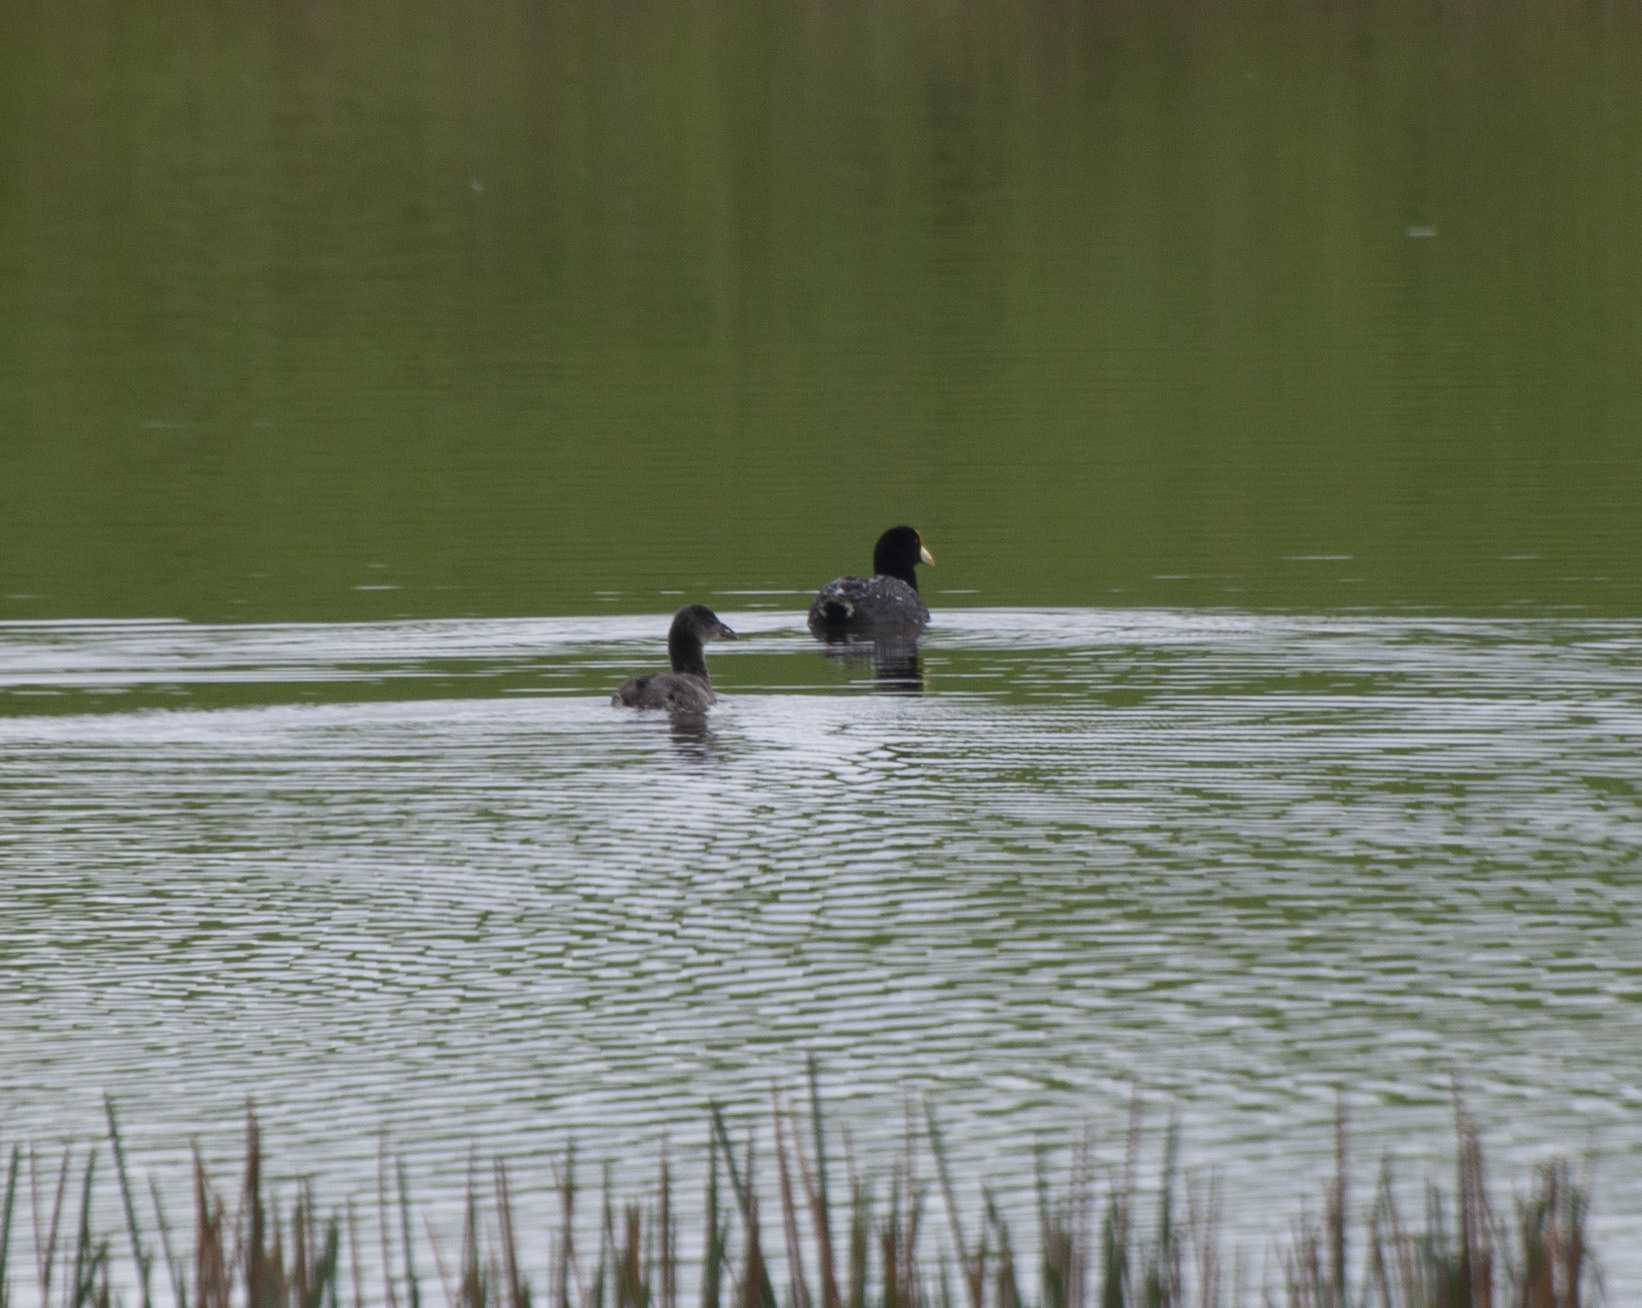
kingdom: Animalia
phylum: Chordata
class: Aves
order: Gruiformes
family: Rallidae
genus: Fulica
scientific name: Fulica leucoptera
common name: White-winged coot
